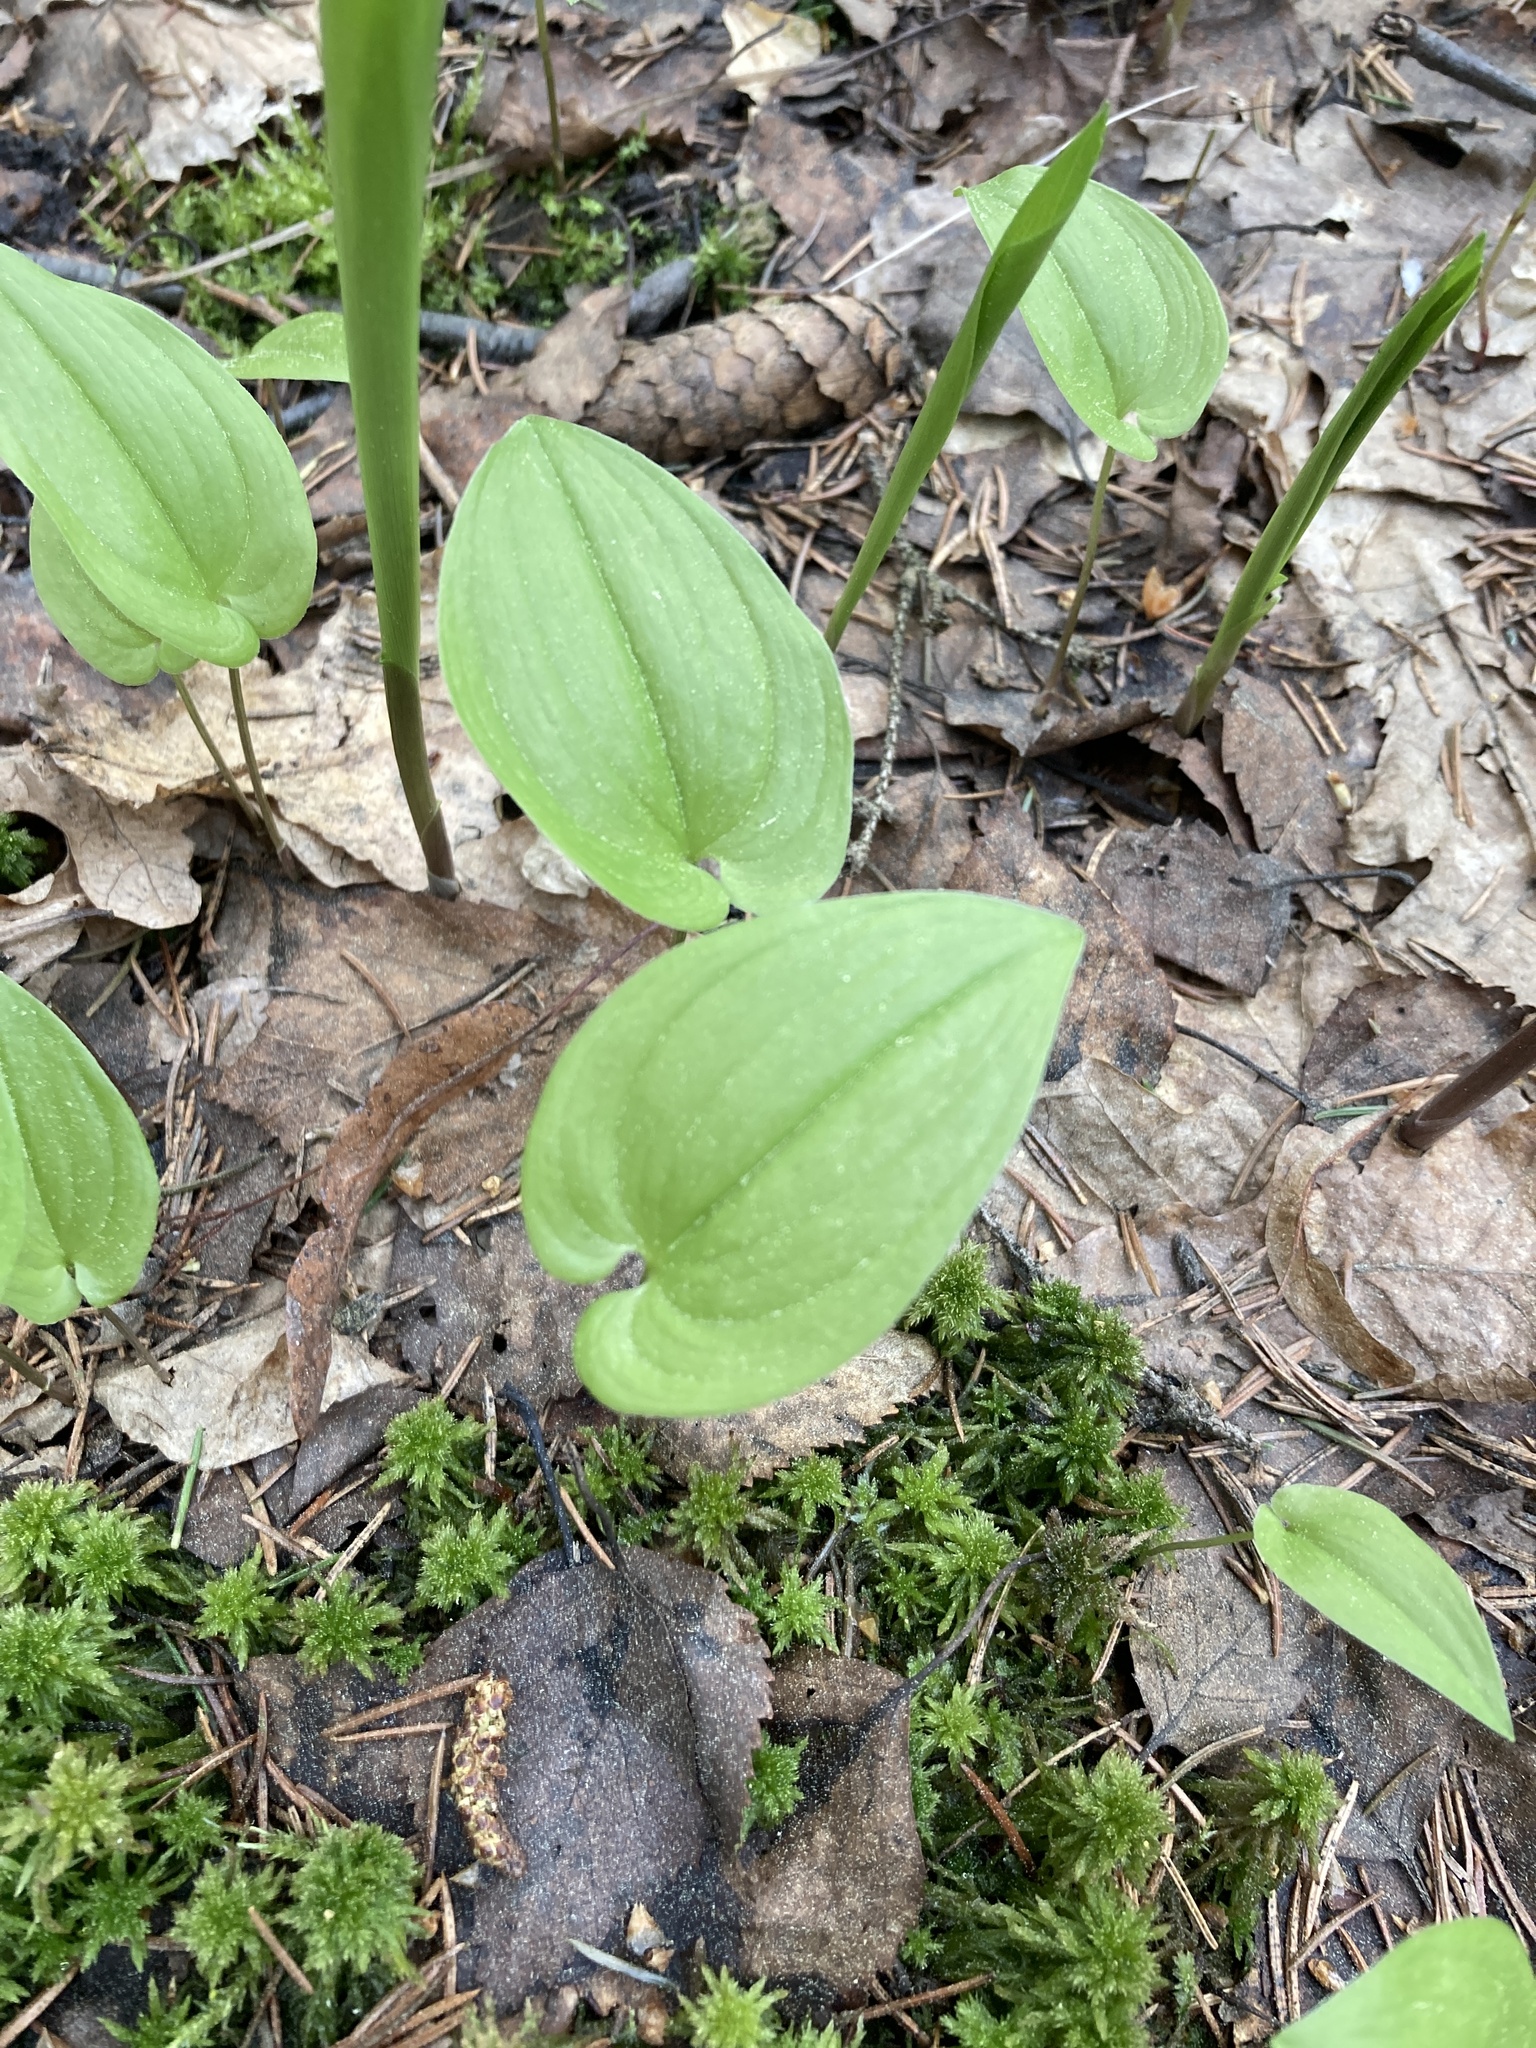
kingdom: Plantae
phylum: Tracheophyta
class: Liliopsida
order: Asparagales
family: Asparagaceae
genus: Maianthemum
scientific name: Maianthemum bifolium
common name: May lily
